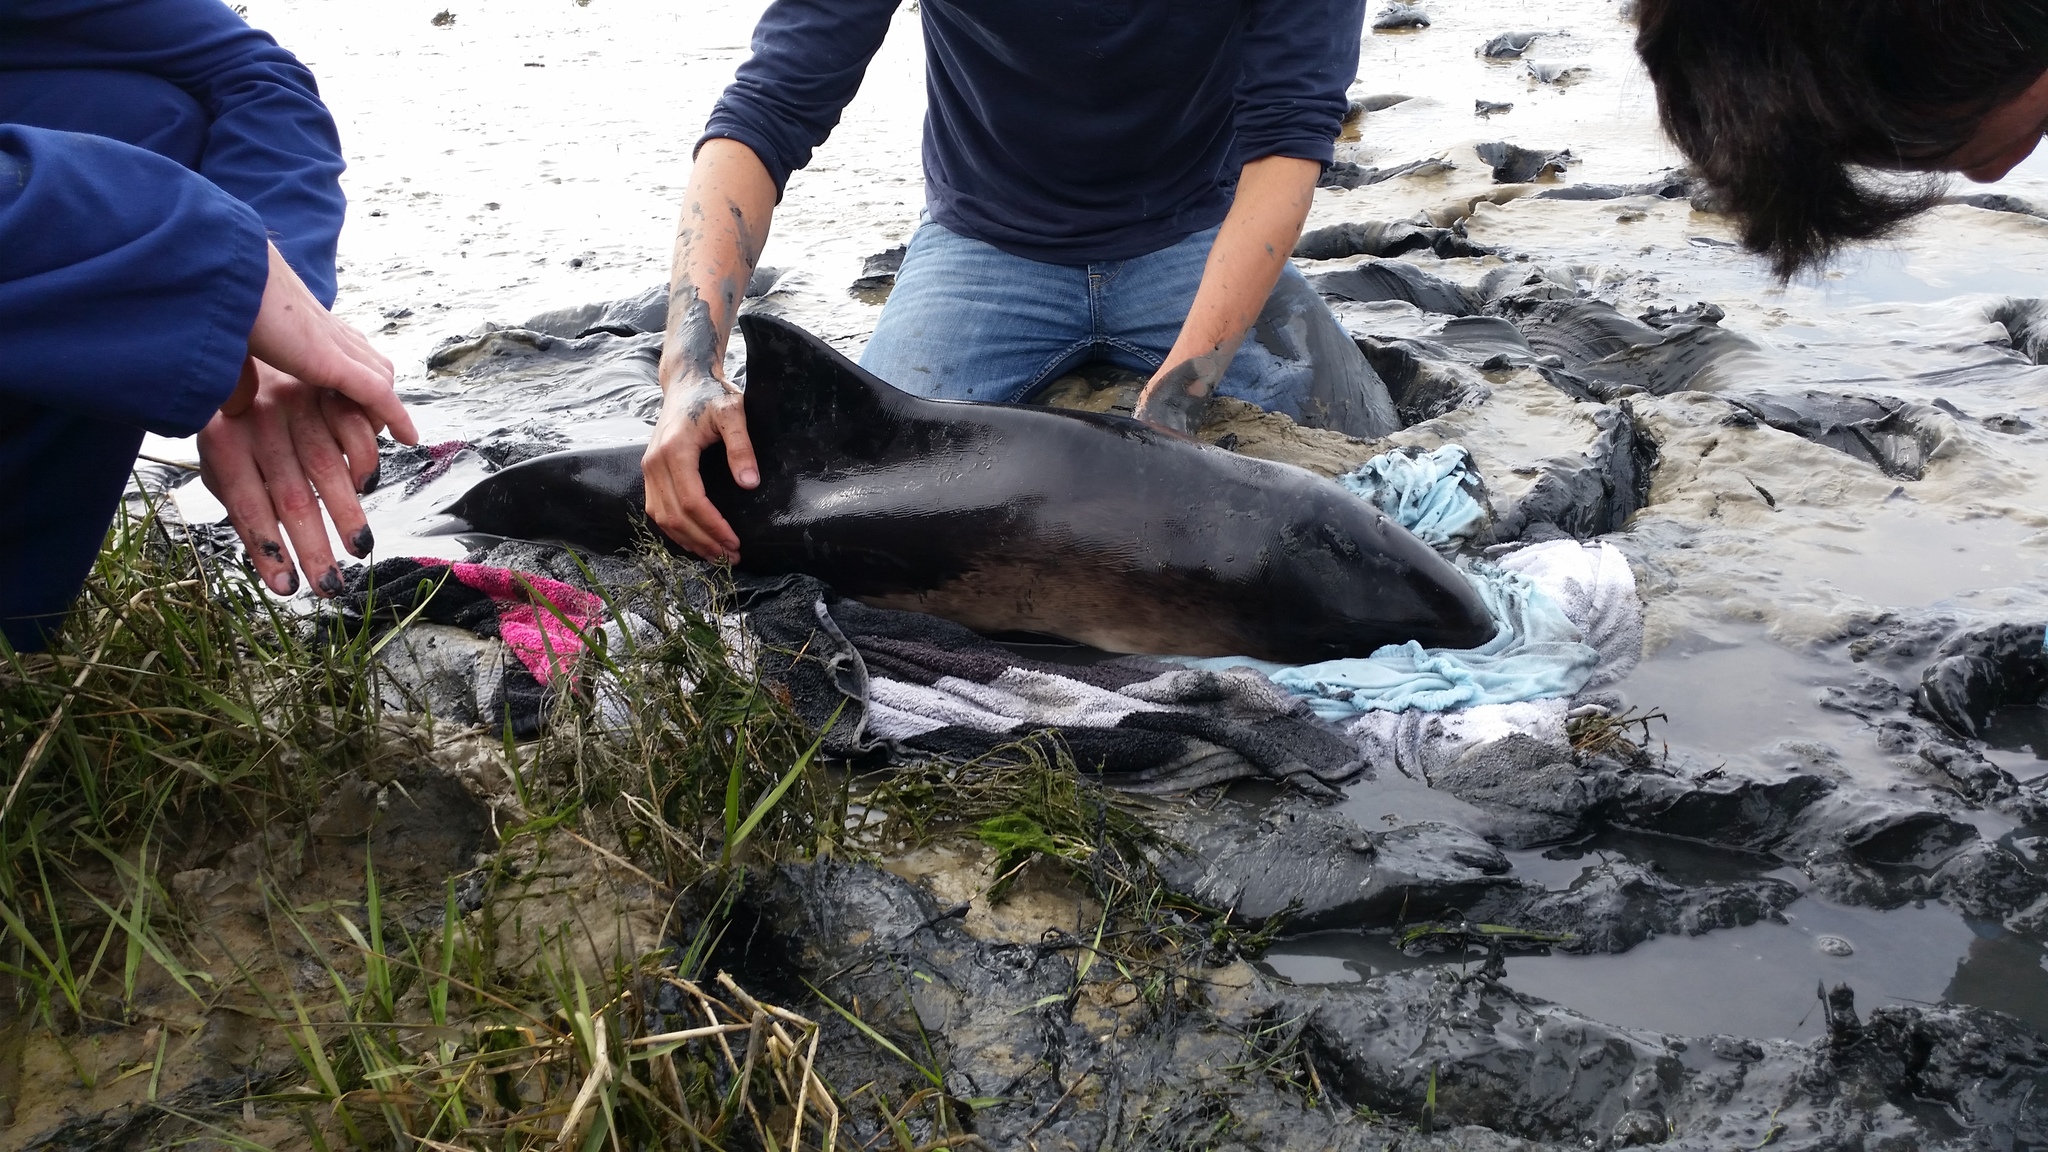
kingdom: Animalia
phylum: Chordata
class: Mammalia
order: Cetacea
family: Phocoenidae
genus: Phocoena
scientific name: Phocoena phocoena
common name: Harbor porpoise
